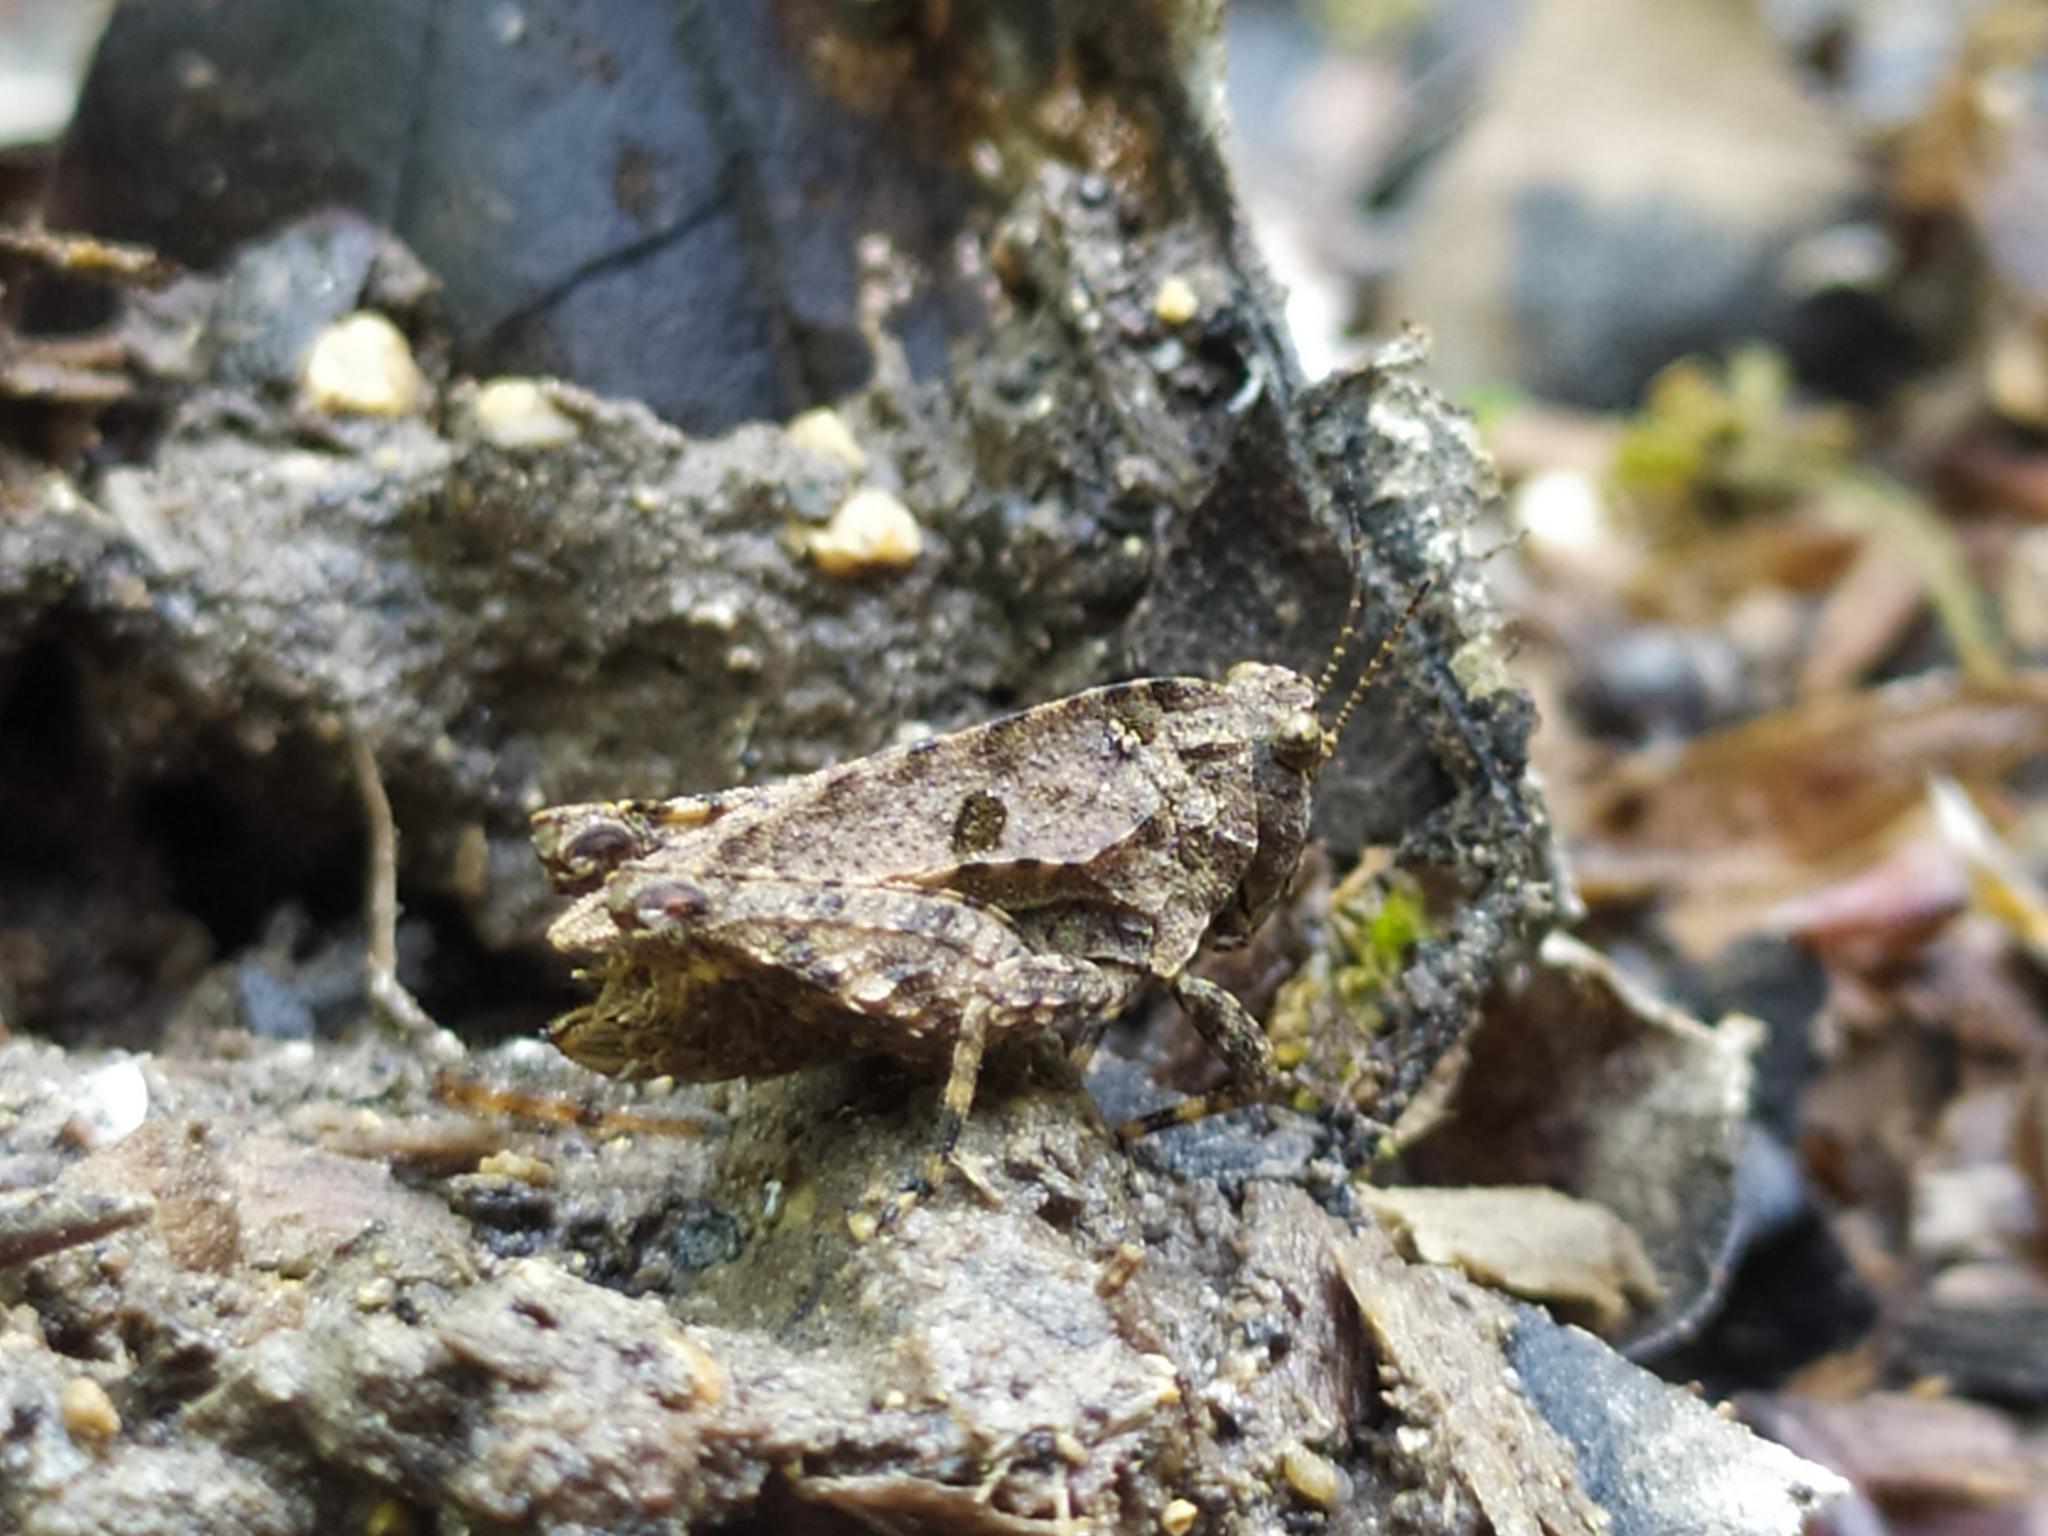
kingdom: Animalia
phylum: Arthropoda
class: Insecta
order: Orthoptera
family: Tetrigidae
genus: Tetrix
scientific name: Tetrix transsylvanica
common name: Transsylvanian wingless groundhopper
